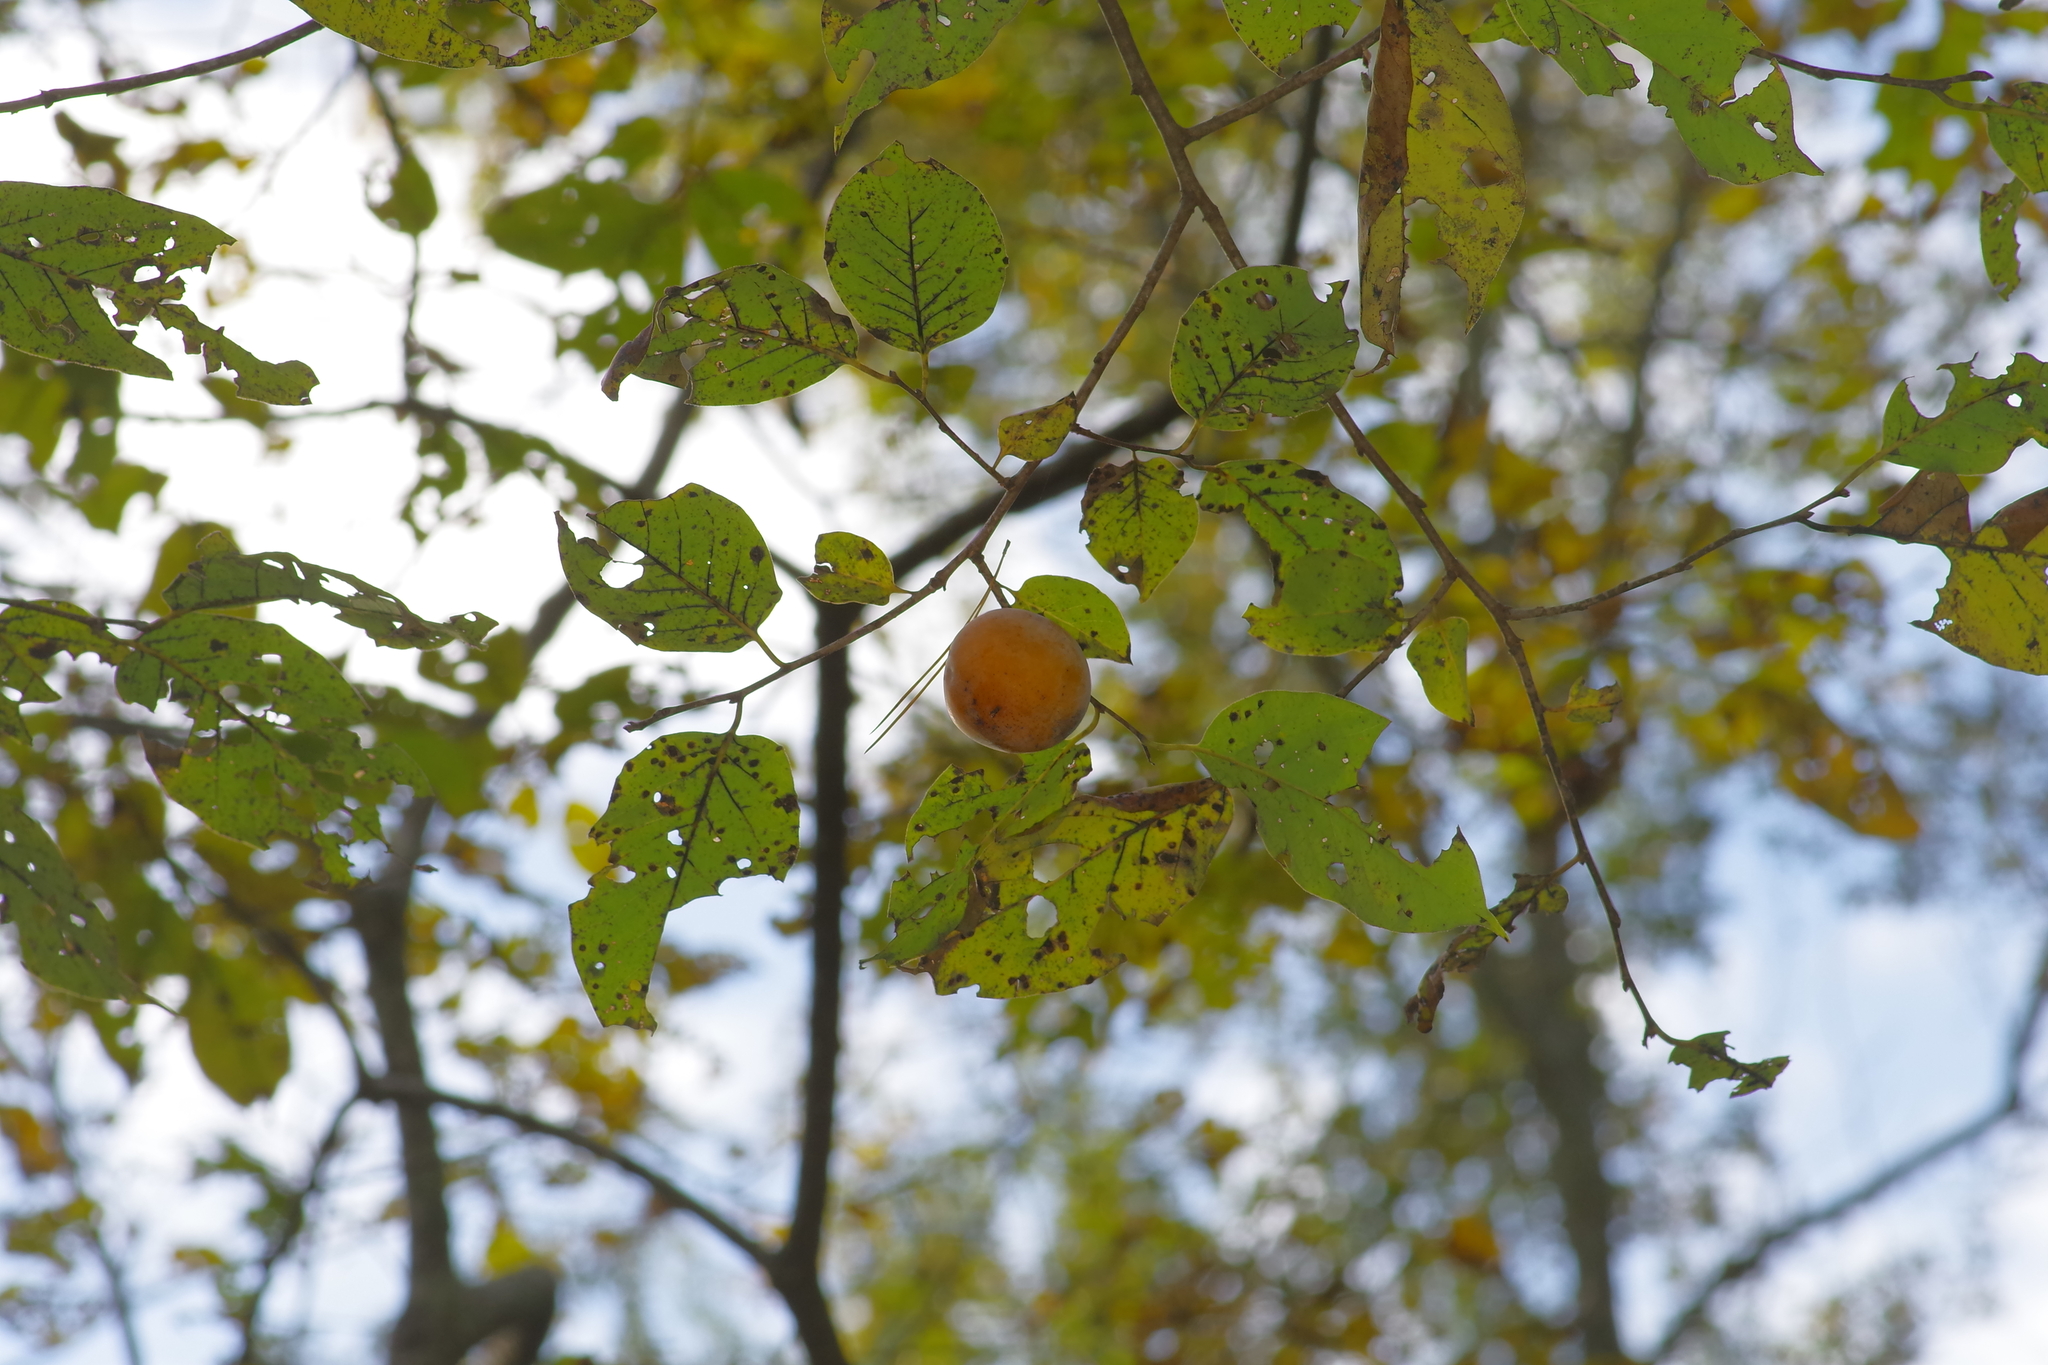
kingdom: Plantae
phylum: Tracheophyta
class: Magnoliopsida
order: Ericales
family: Ebenaceae
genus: Diospyros
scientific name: Diospyros virginiana
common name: Persimmon
